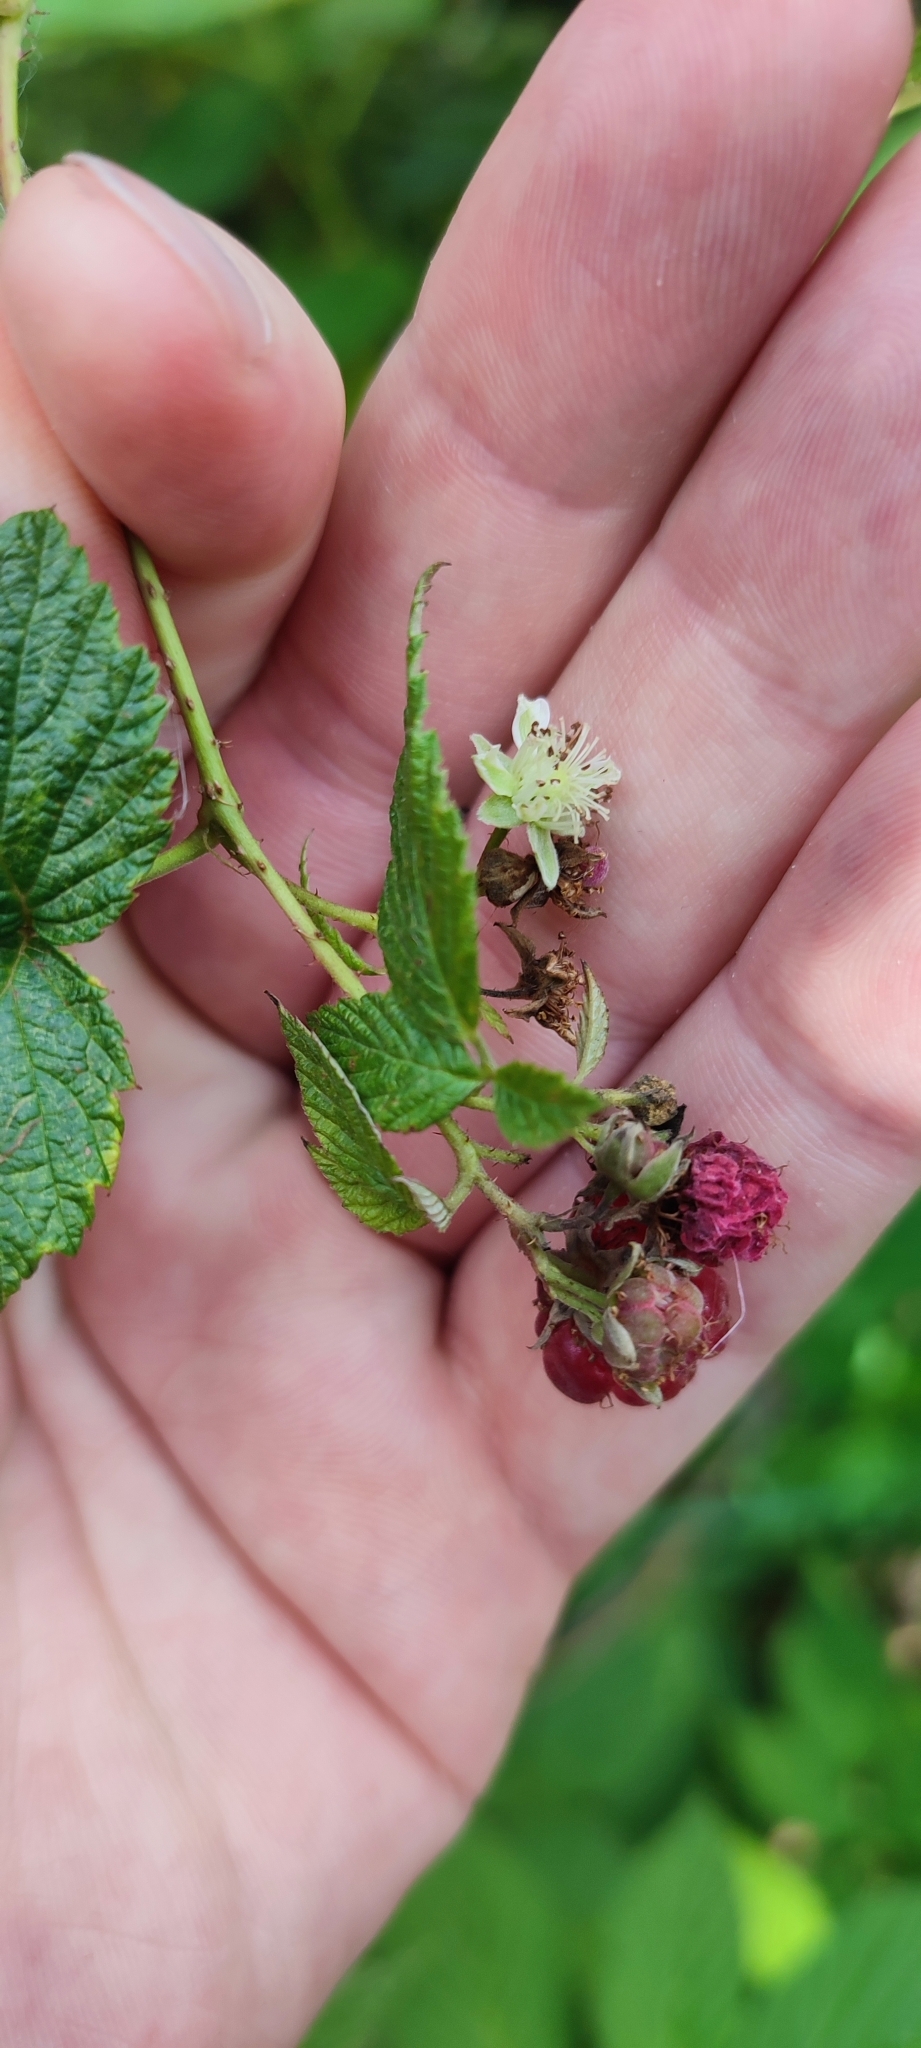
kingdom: Plantae
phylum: Tracheophyta
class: Magnoliopsida
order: Rosales
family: Rosaceae
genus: Rubus
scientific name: Rubus idaeus
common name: Raspberry
